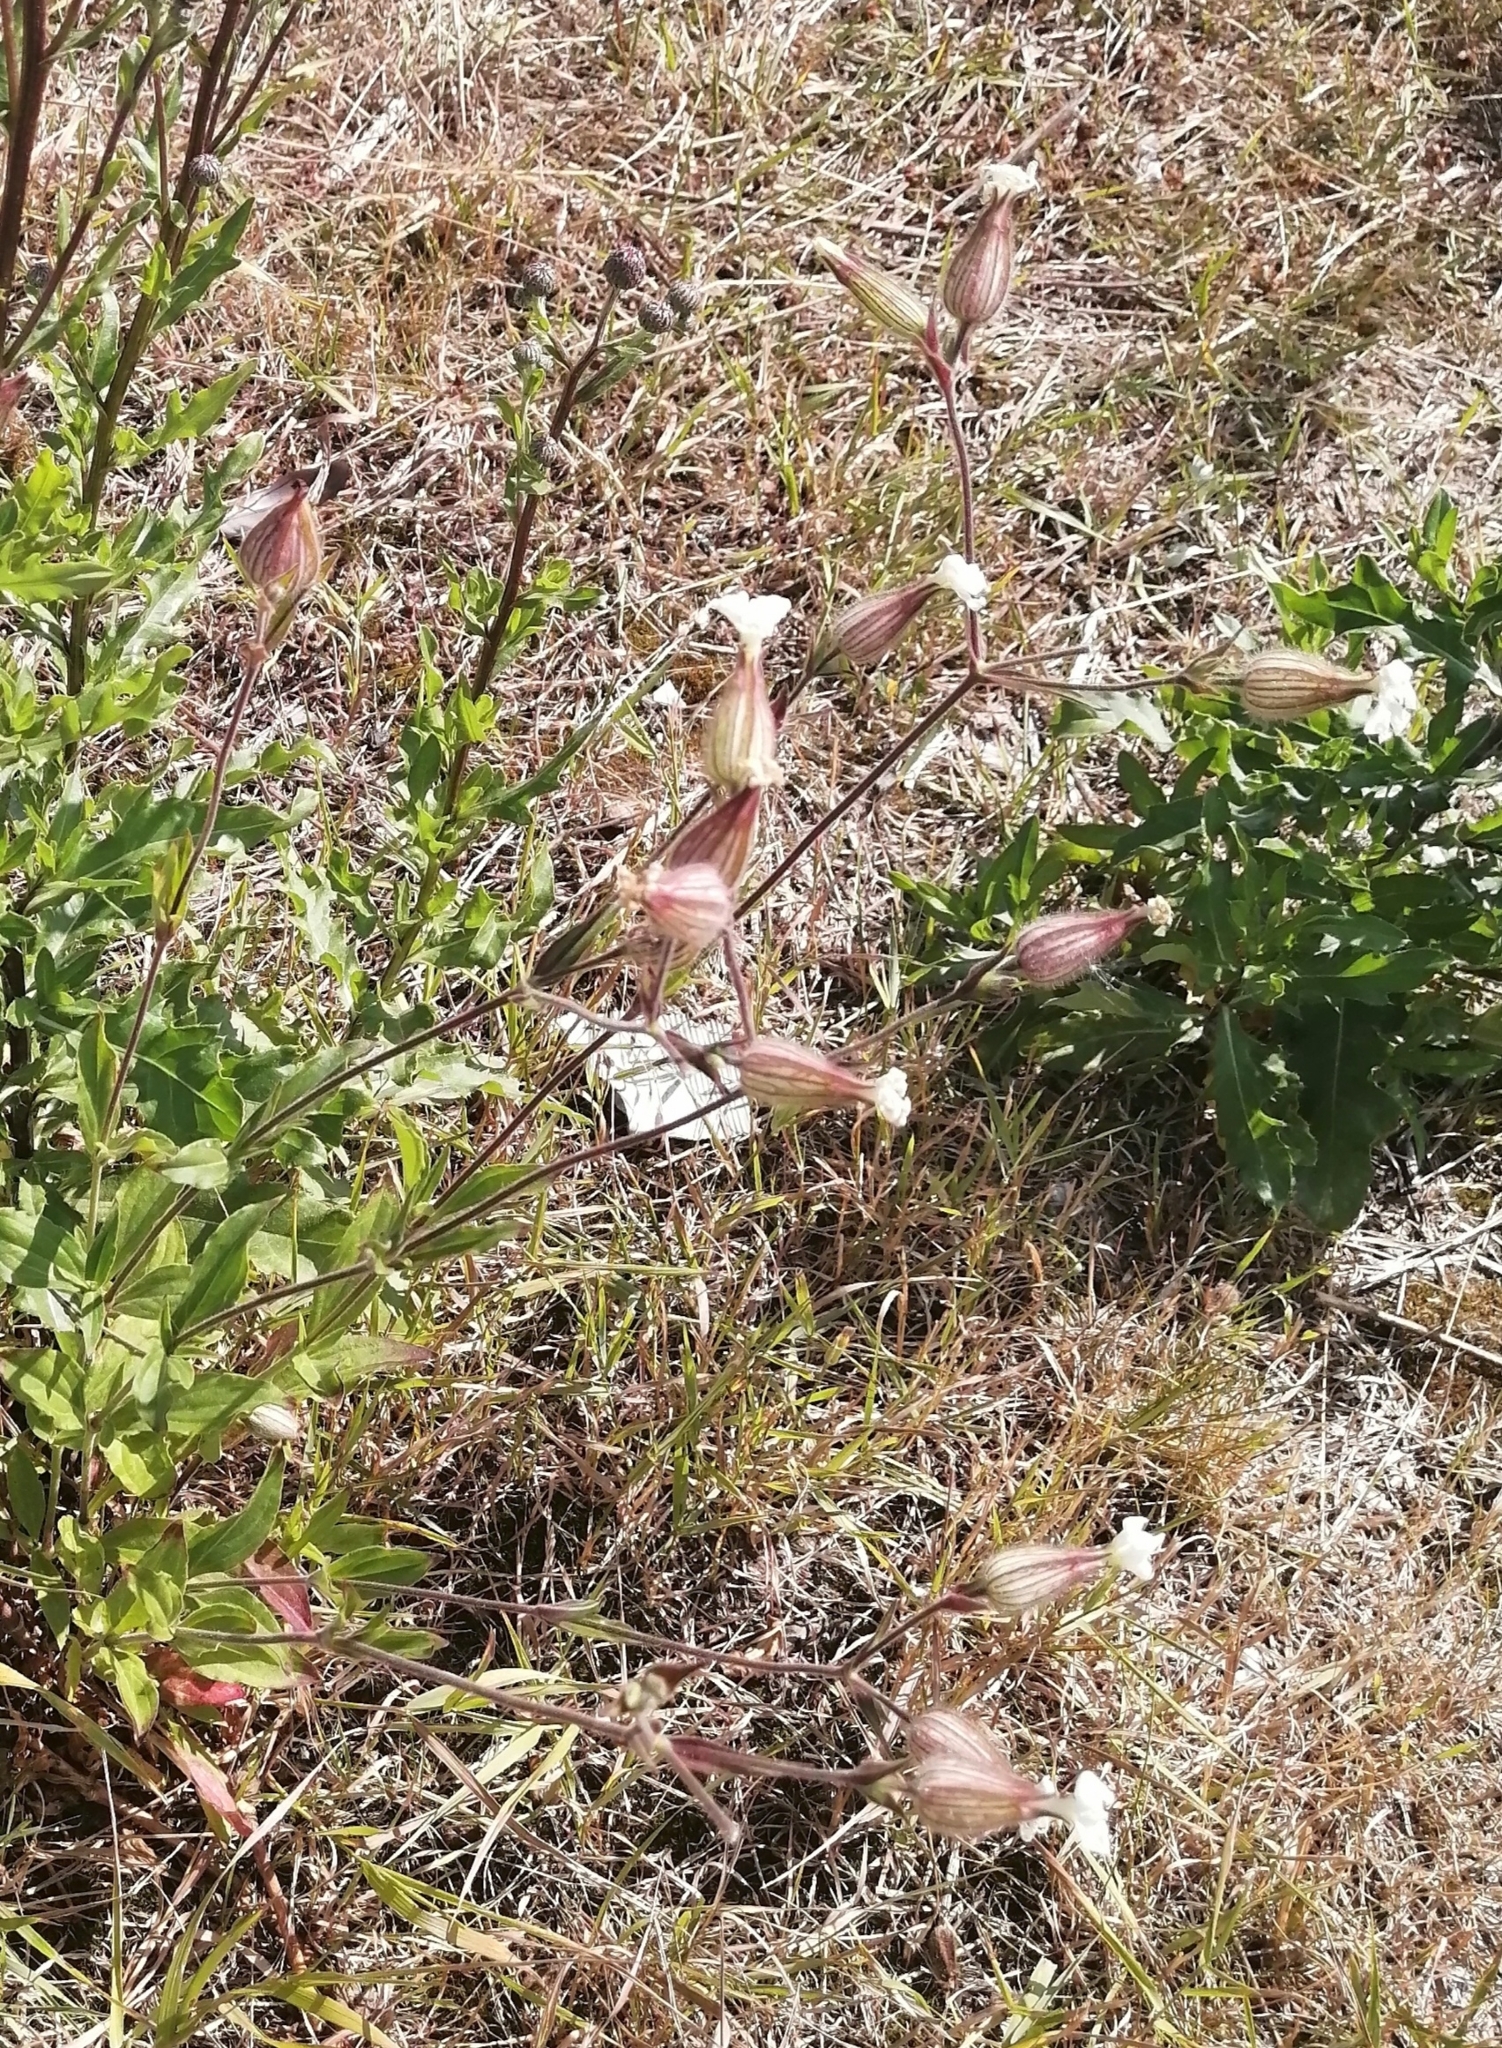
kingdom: Plantae
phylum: Tracheophyta
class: Magnoliopsida
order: Caryophyllales
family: Caryophyllaceae
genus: Silene
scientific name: Silene latifolia
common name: White campion
